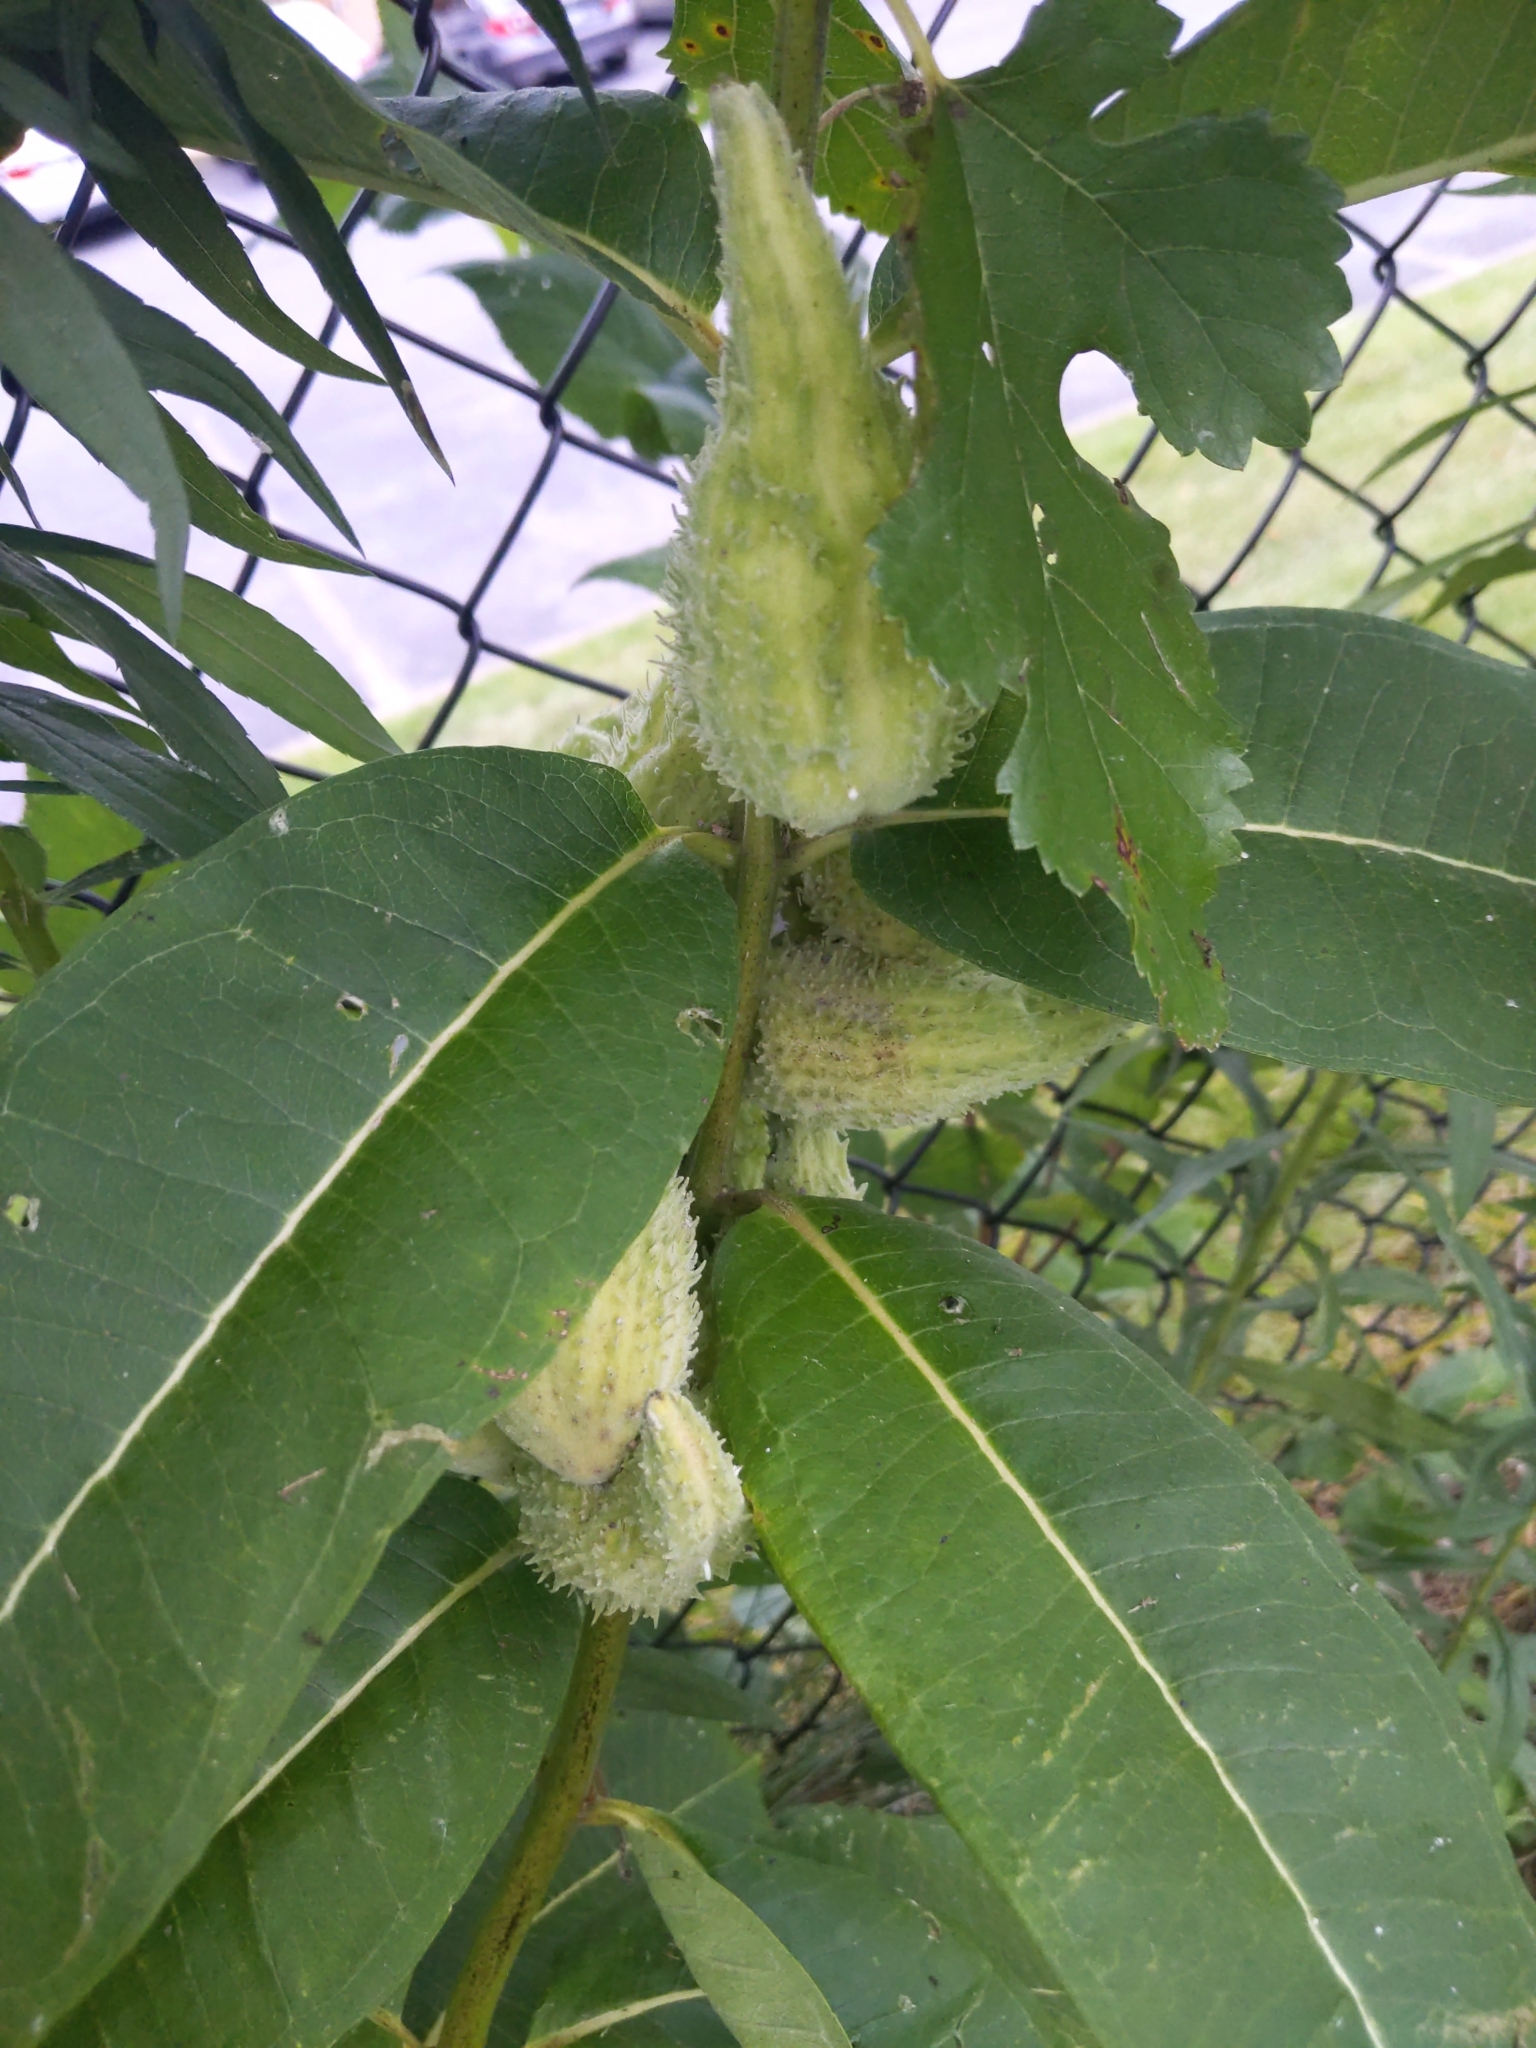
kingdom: Plantae
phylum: Tracheophyta
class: Magnoliopsida
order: Gentianales
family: Apocynaceae
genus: Asclepias
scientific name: Asclepias syriaca
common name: Common milkweed
